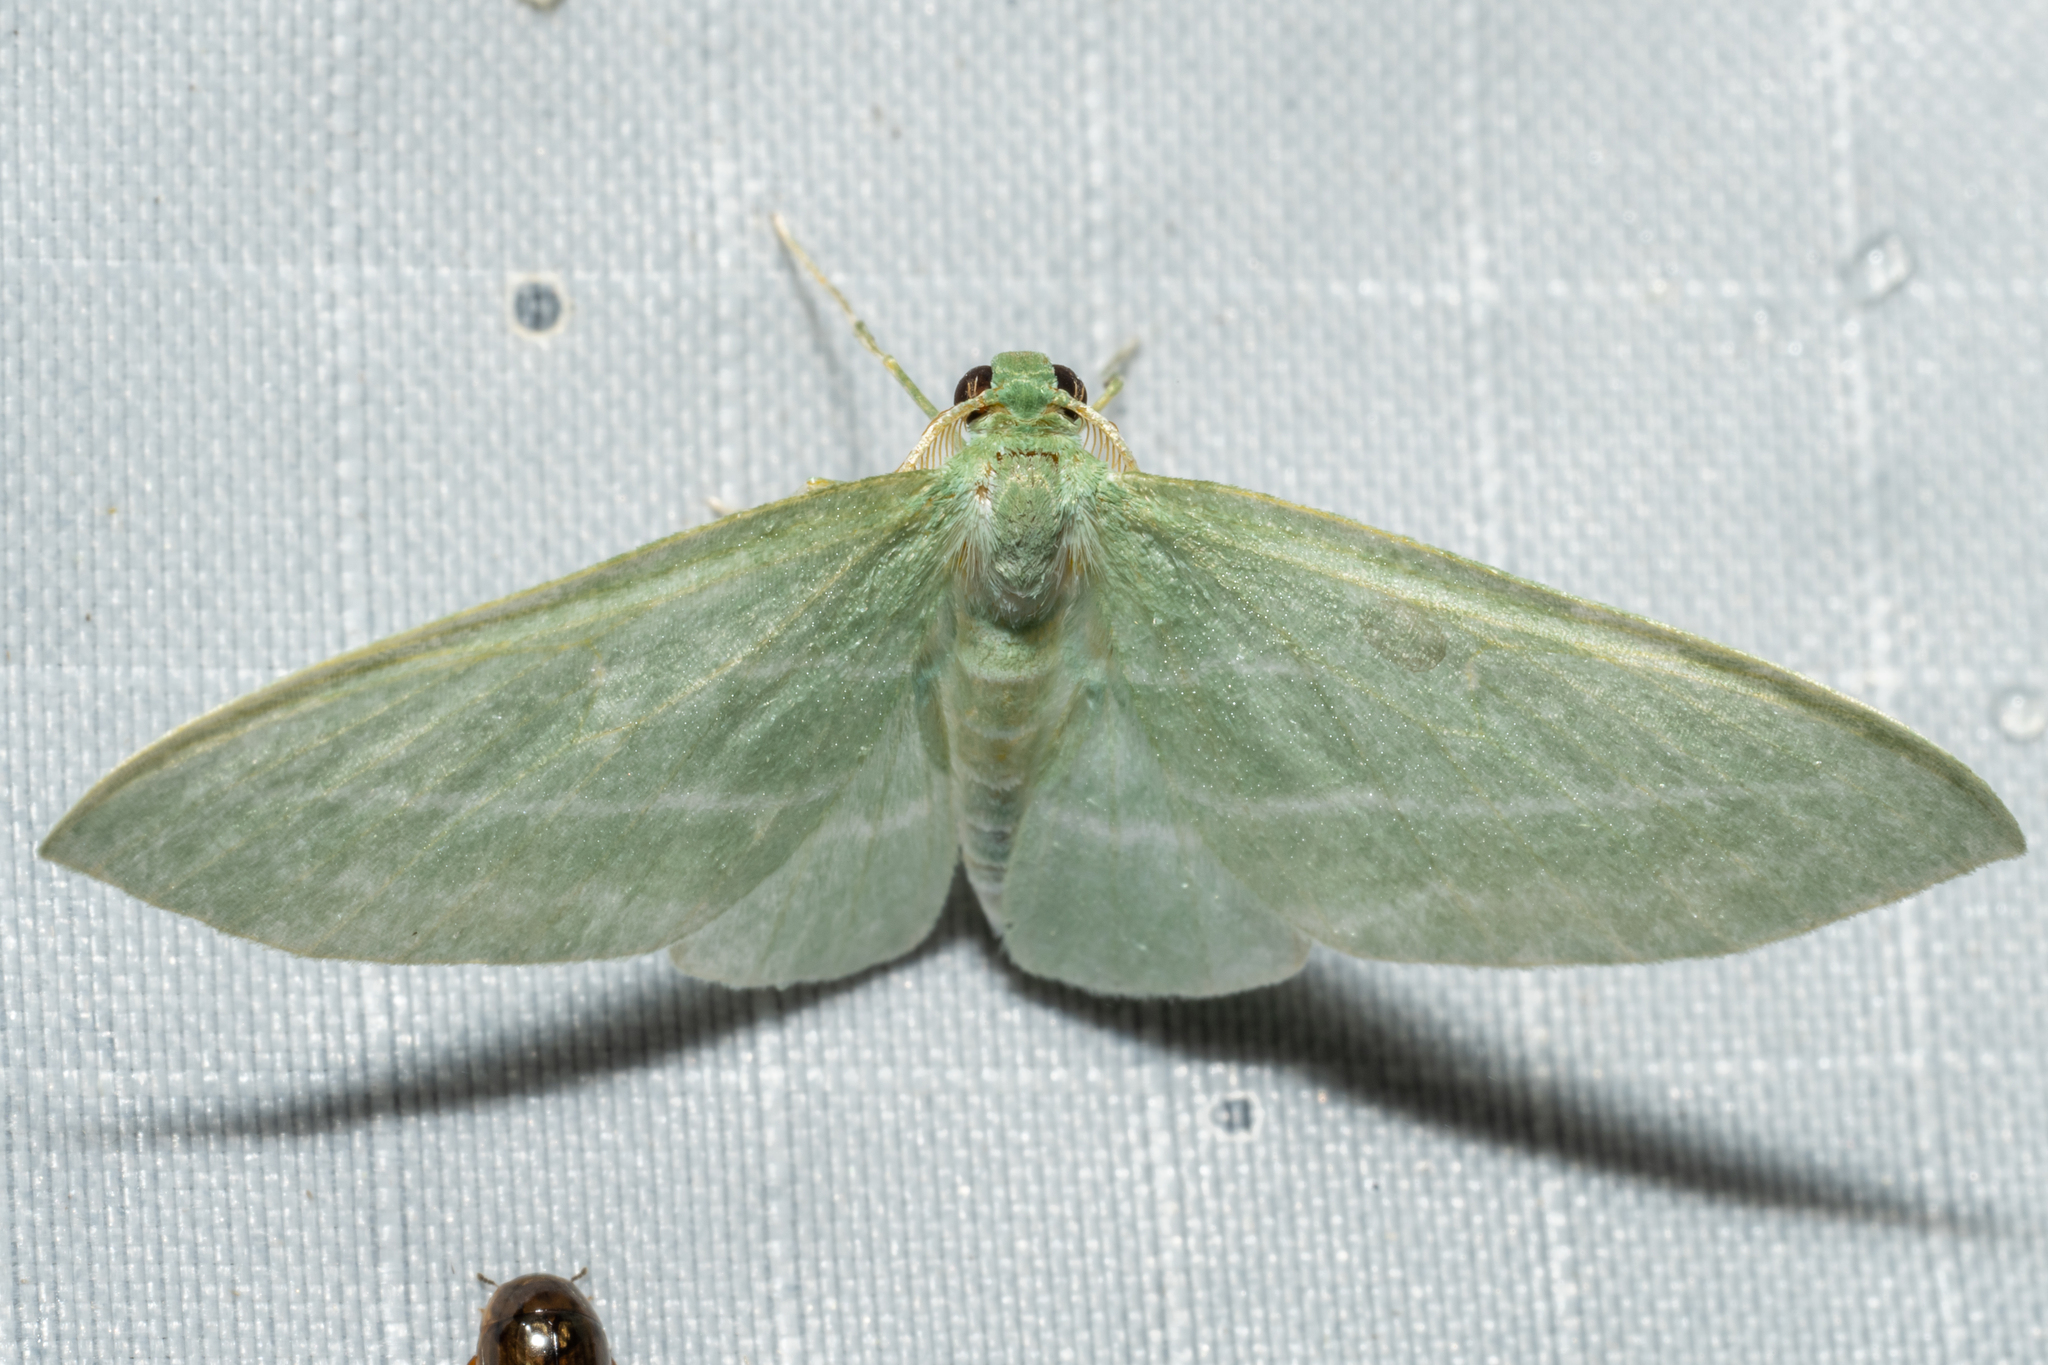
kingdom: Animalia
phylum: Arthropoda
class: Insecta
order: Lepidoptera
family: Geometridae
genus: Dyspteris
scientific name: Dyspteris abortivaria
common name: Bad-wing
